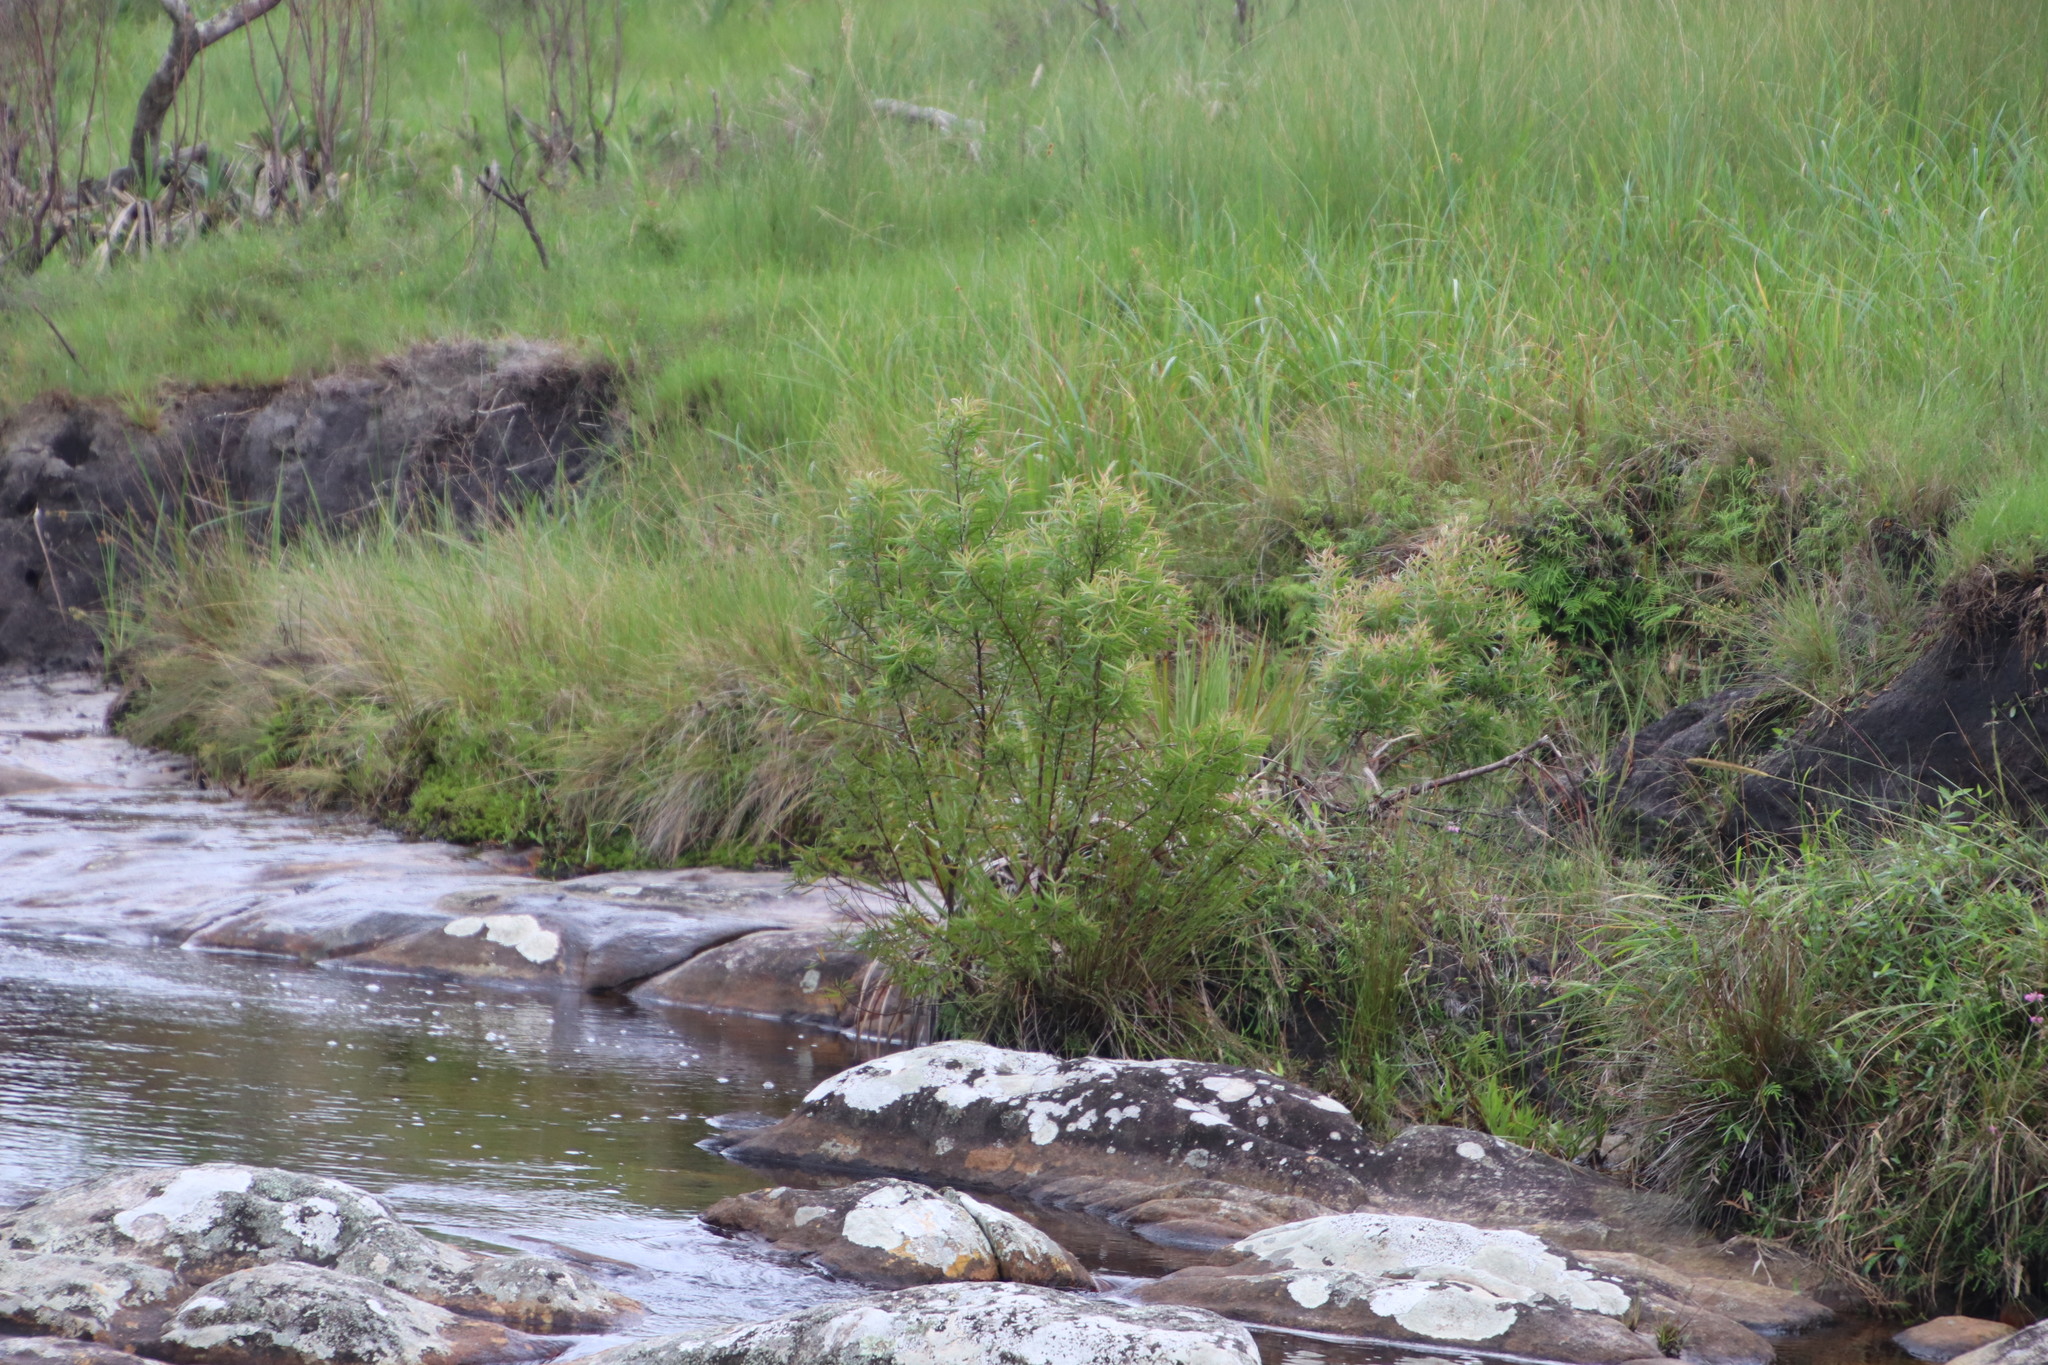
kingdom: Plantae
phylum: Tracheophyta
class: Magnoliopsida
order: Proteales
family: Proteaceae
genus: Leucadendron
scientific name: Leucadendron pondoense
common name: Pondoland conebush
